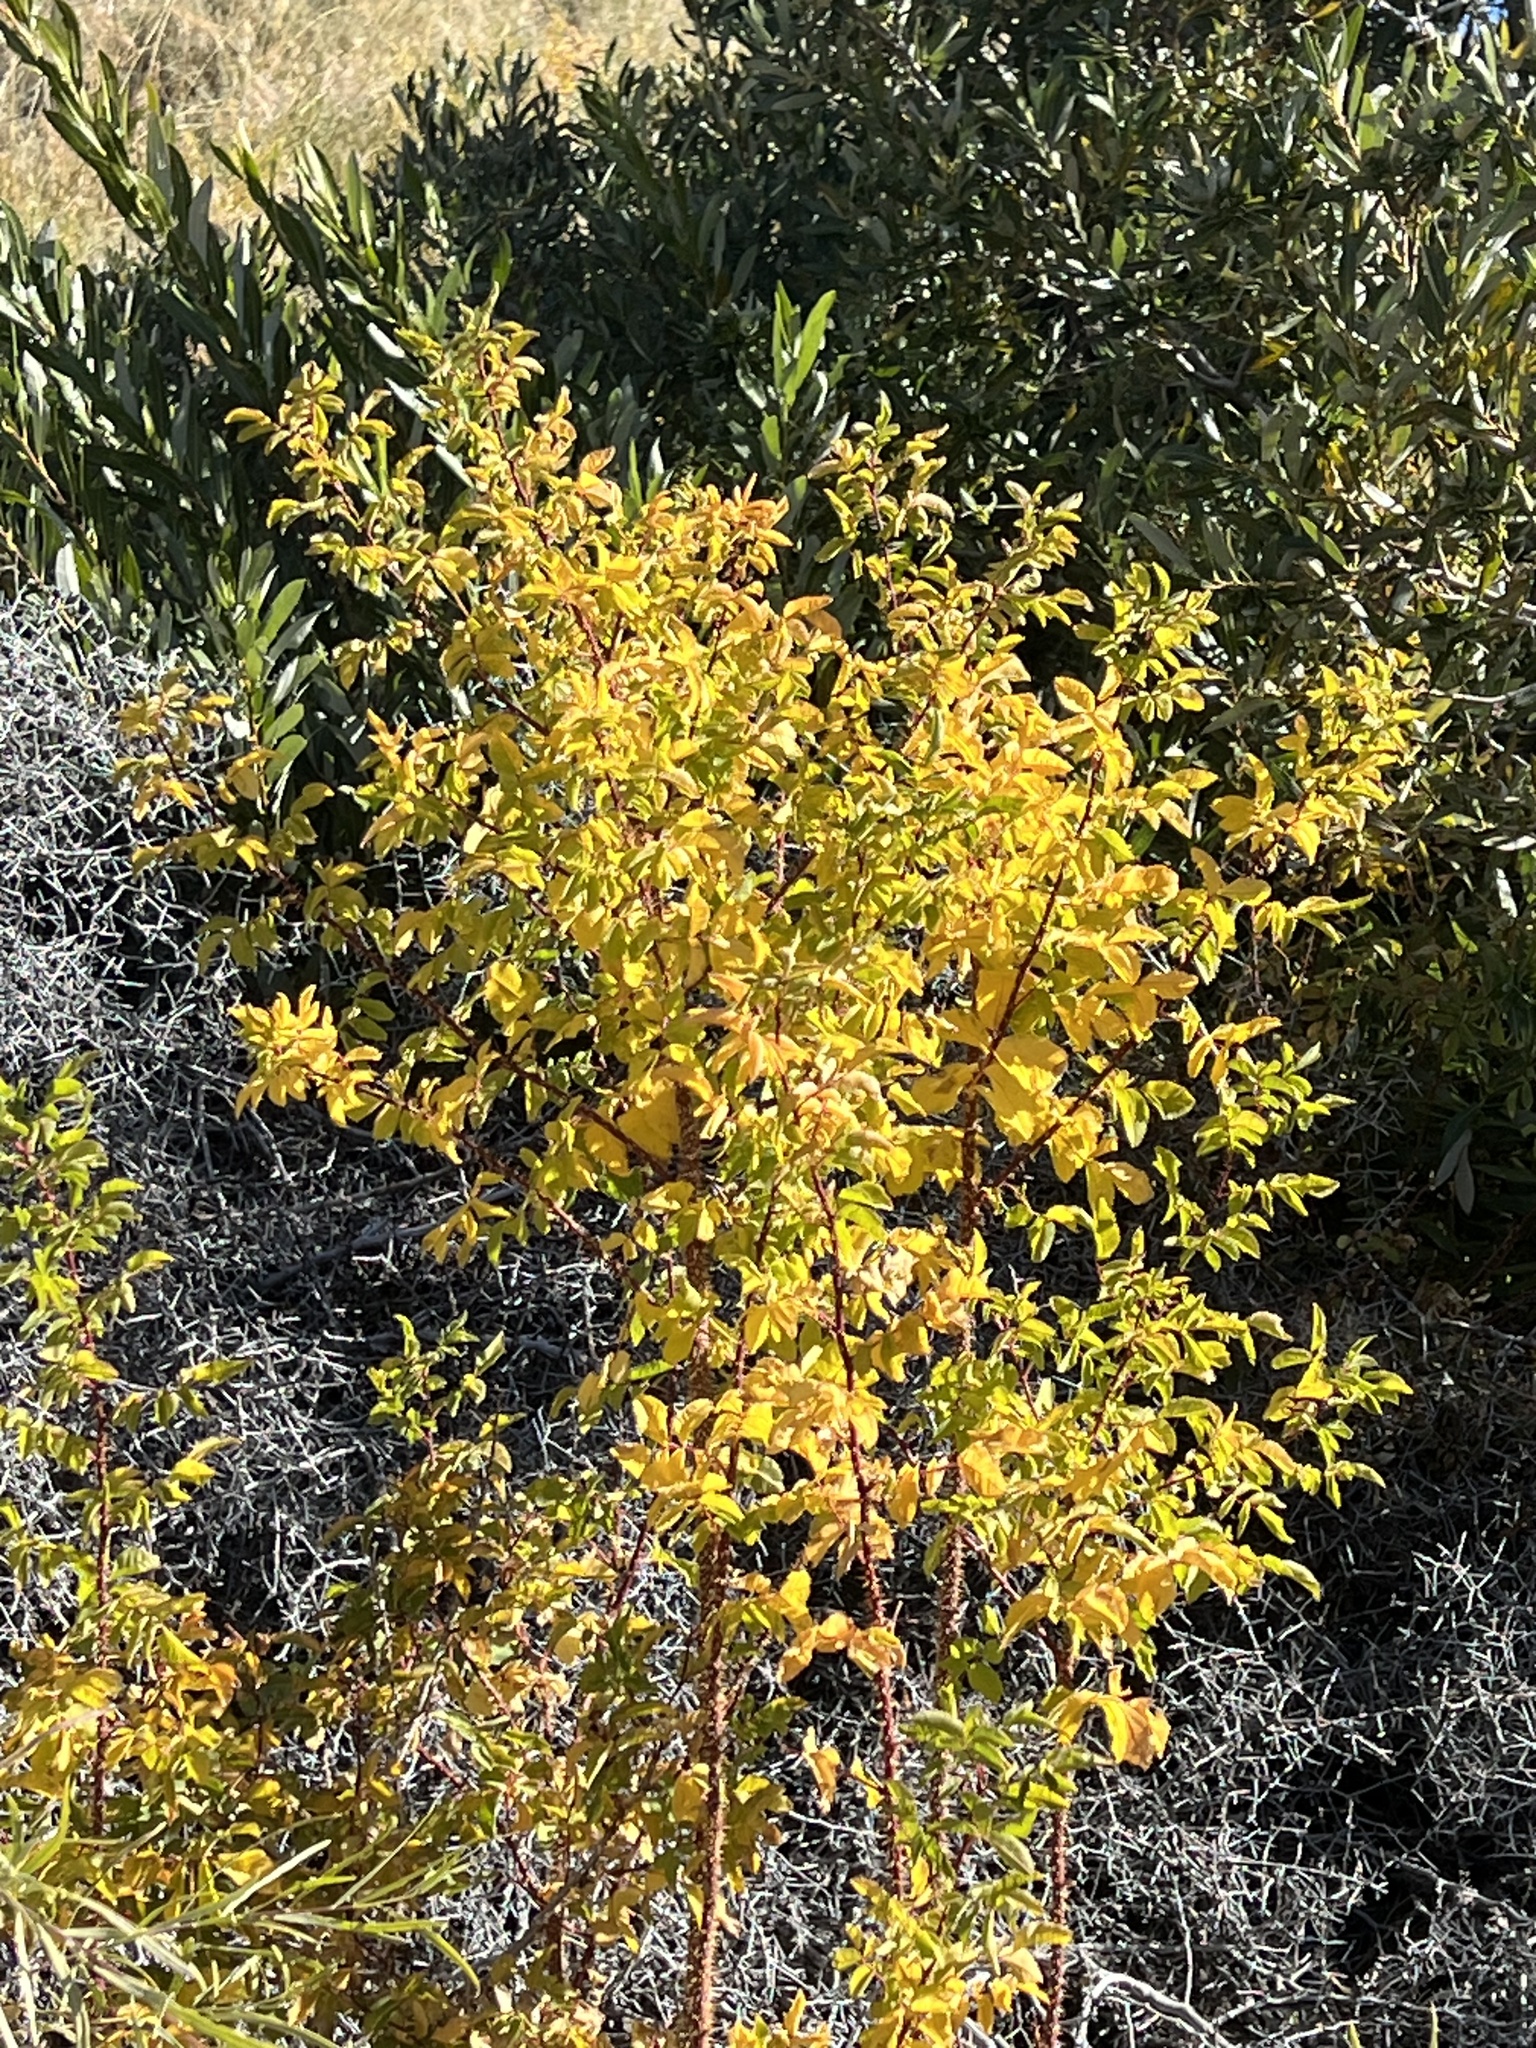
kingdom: Plantae
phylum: Tracheophyta
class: Magnoliopsida
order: Rosales
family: Rosaceae
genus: Rosa
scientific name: Rosa woodsii
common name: Woods's rose
